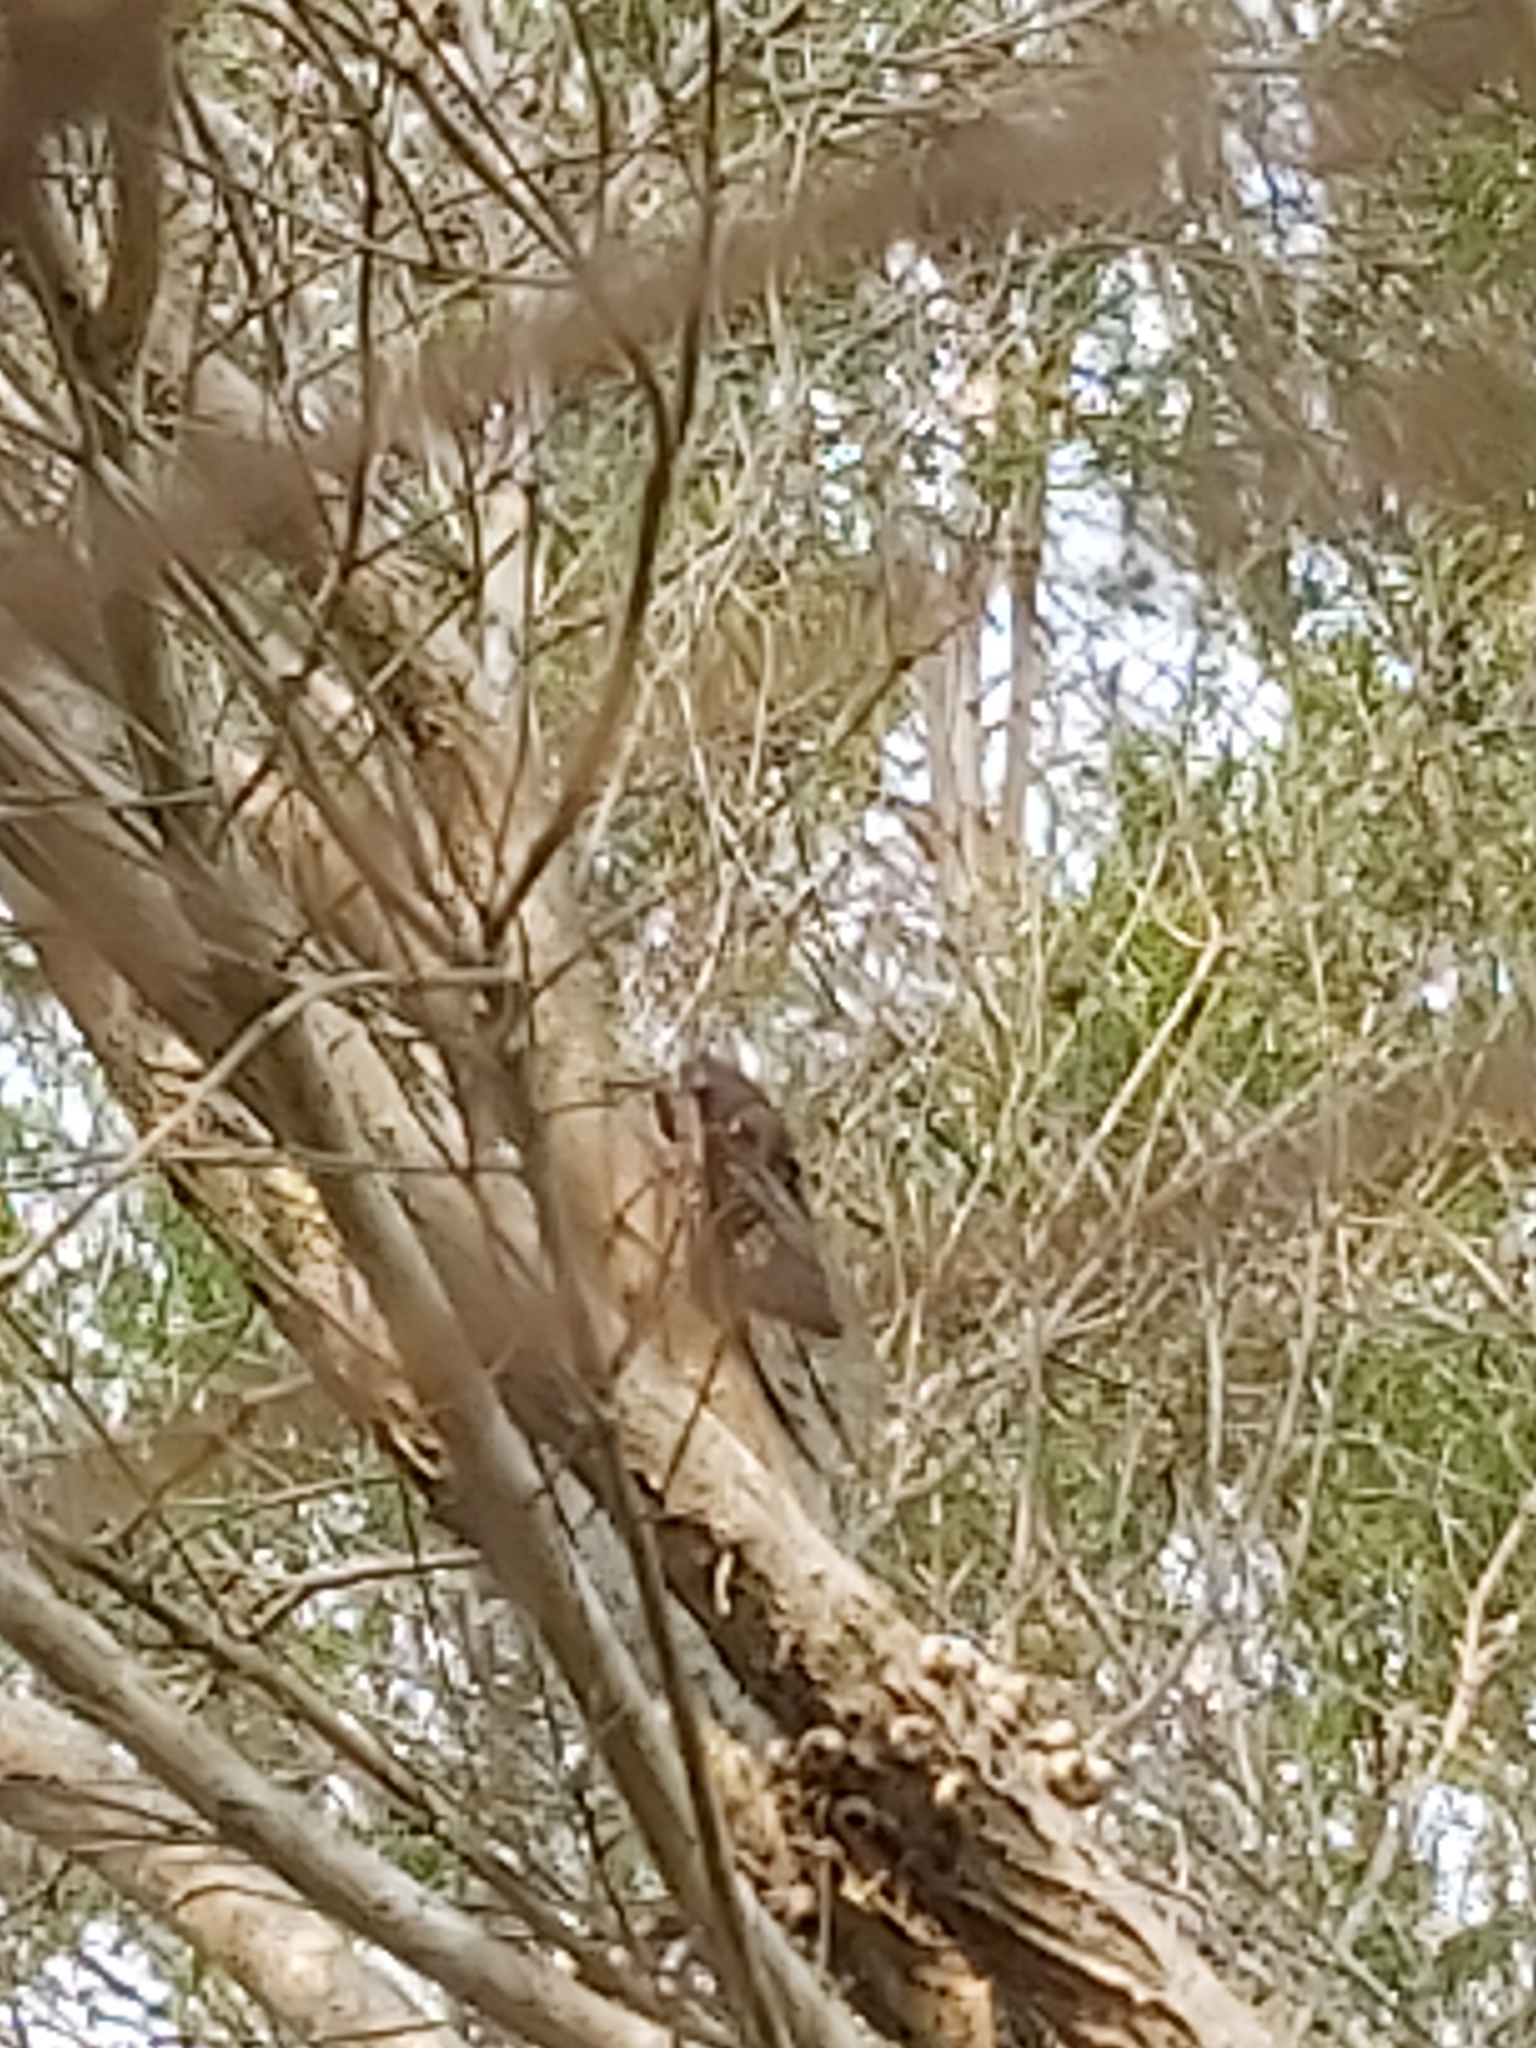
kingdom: Animalia
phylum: Arthropoda
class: Insecta
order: Hemiptera
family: Cicadidae
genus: Psaltoda
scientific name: Psaltoda plaga
